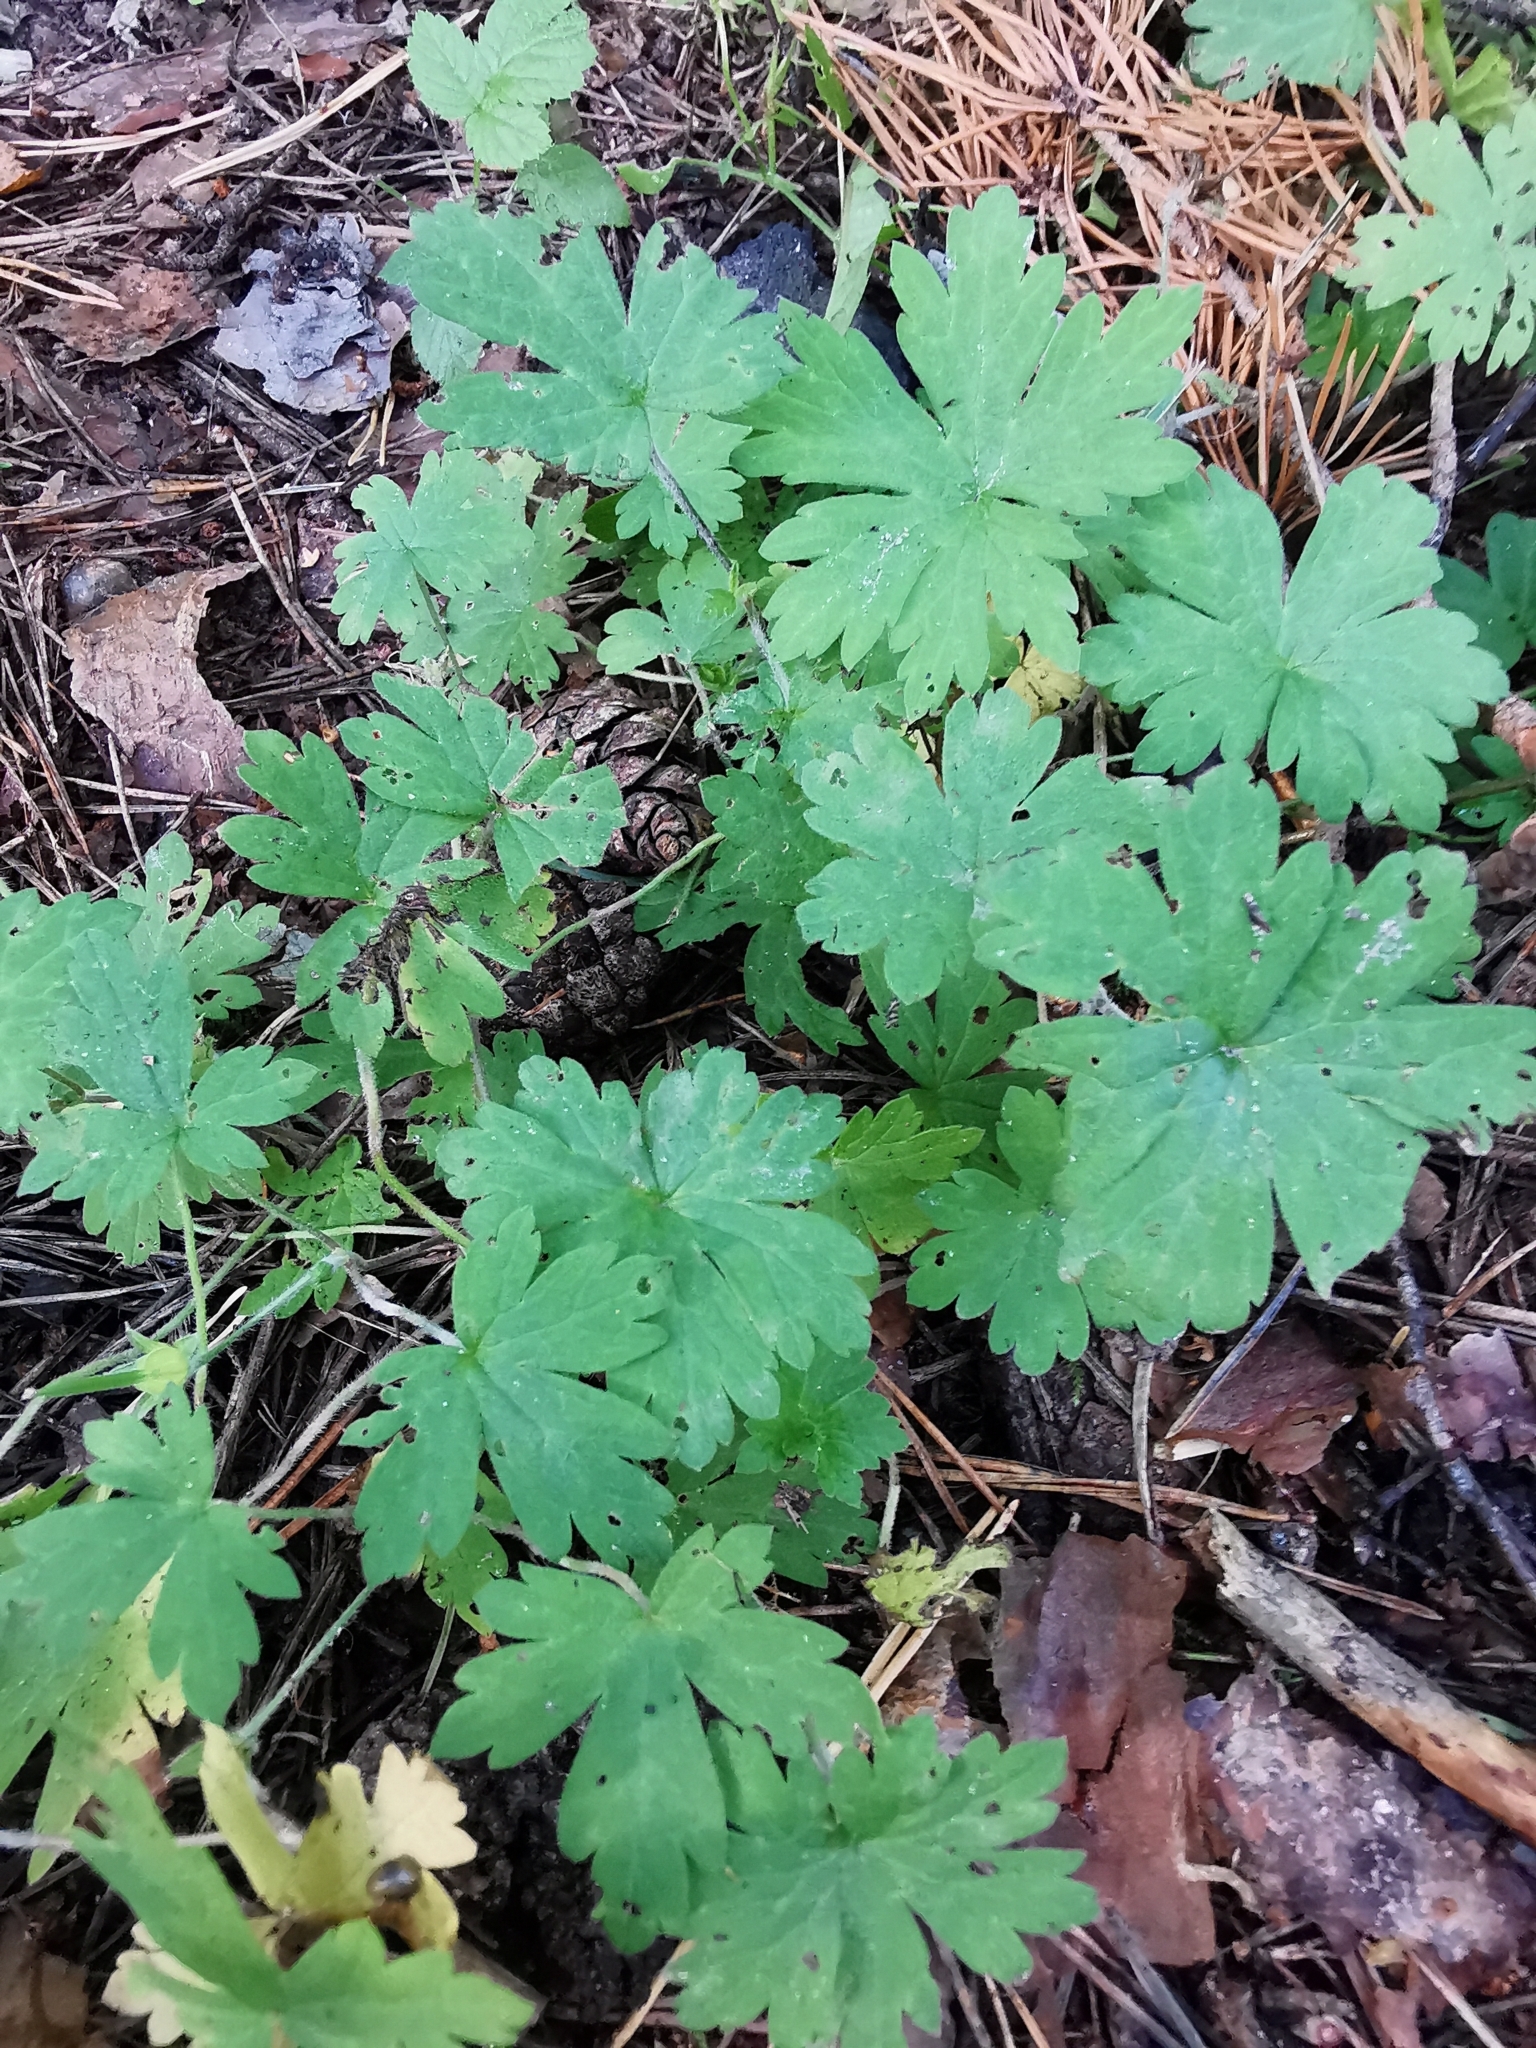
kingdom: Plantae
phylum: Tracheophyta
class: Magnoliopsida
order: Geraniales
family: Geraniaceae
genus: Geranium
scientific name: Geranium sibiricum
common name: Siberian crane's-bill
